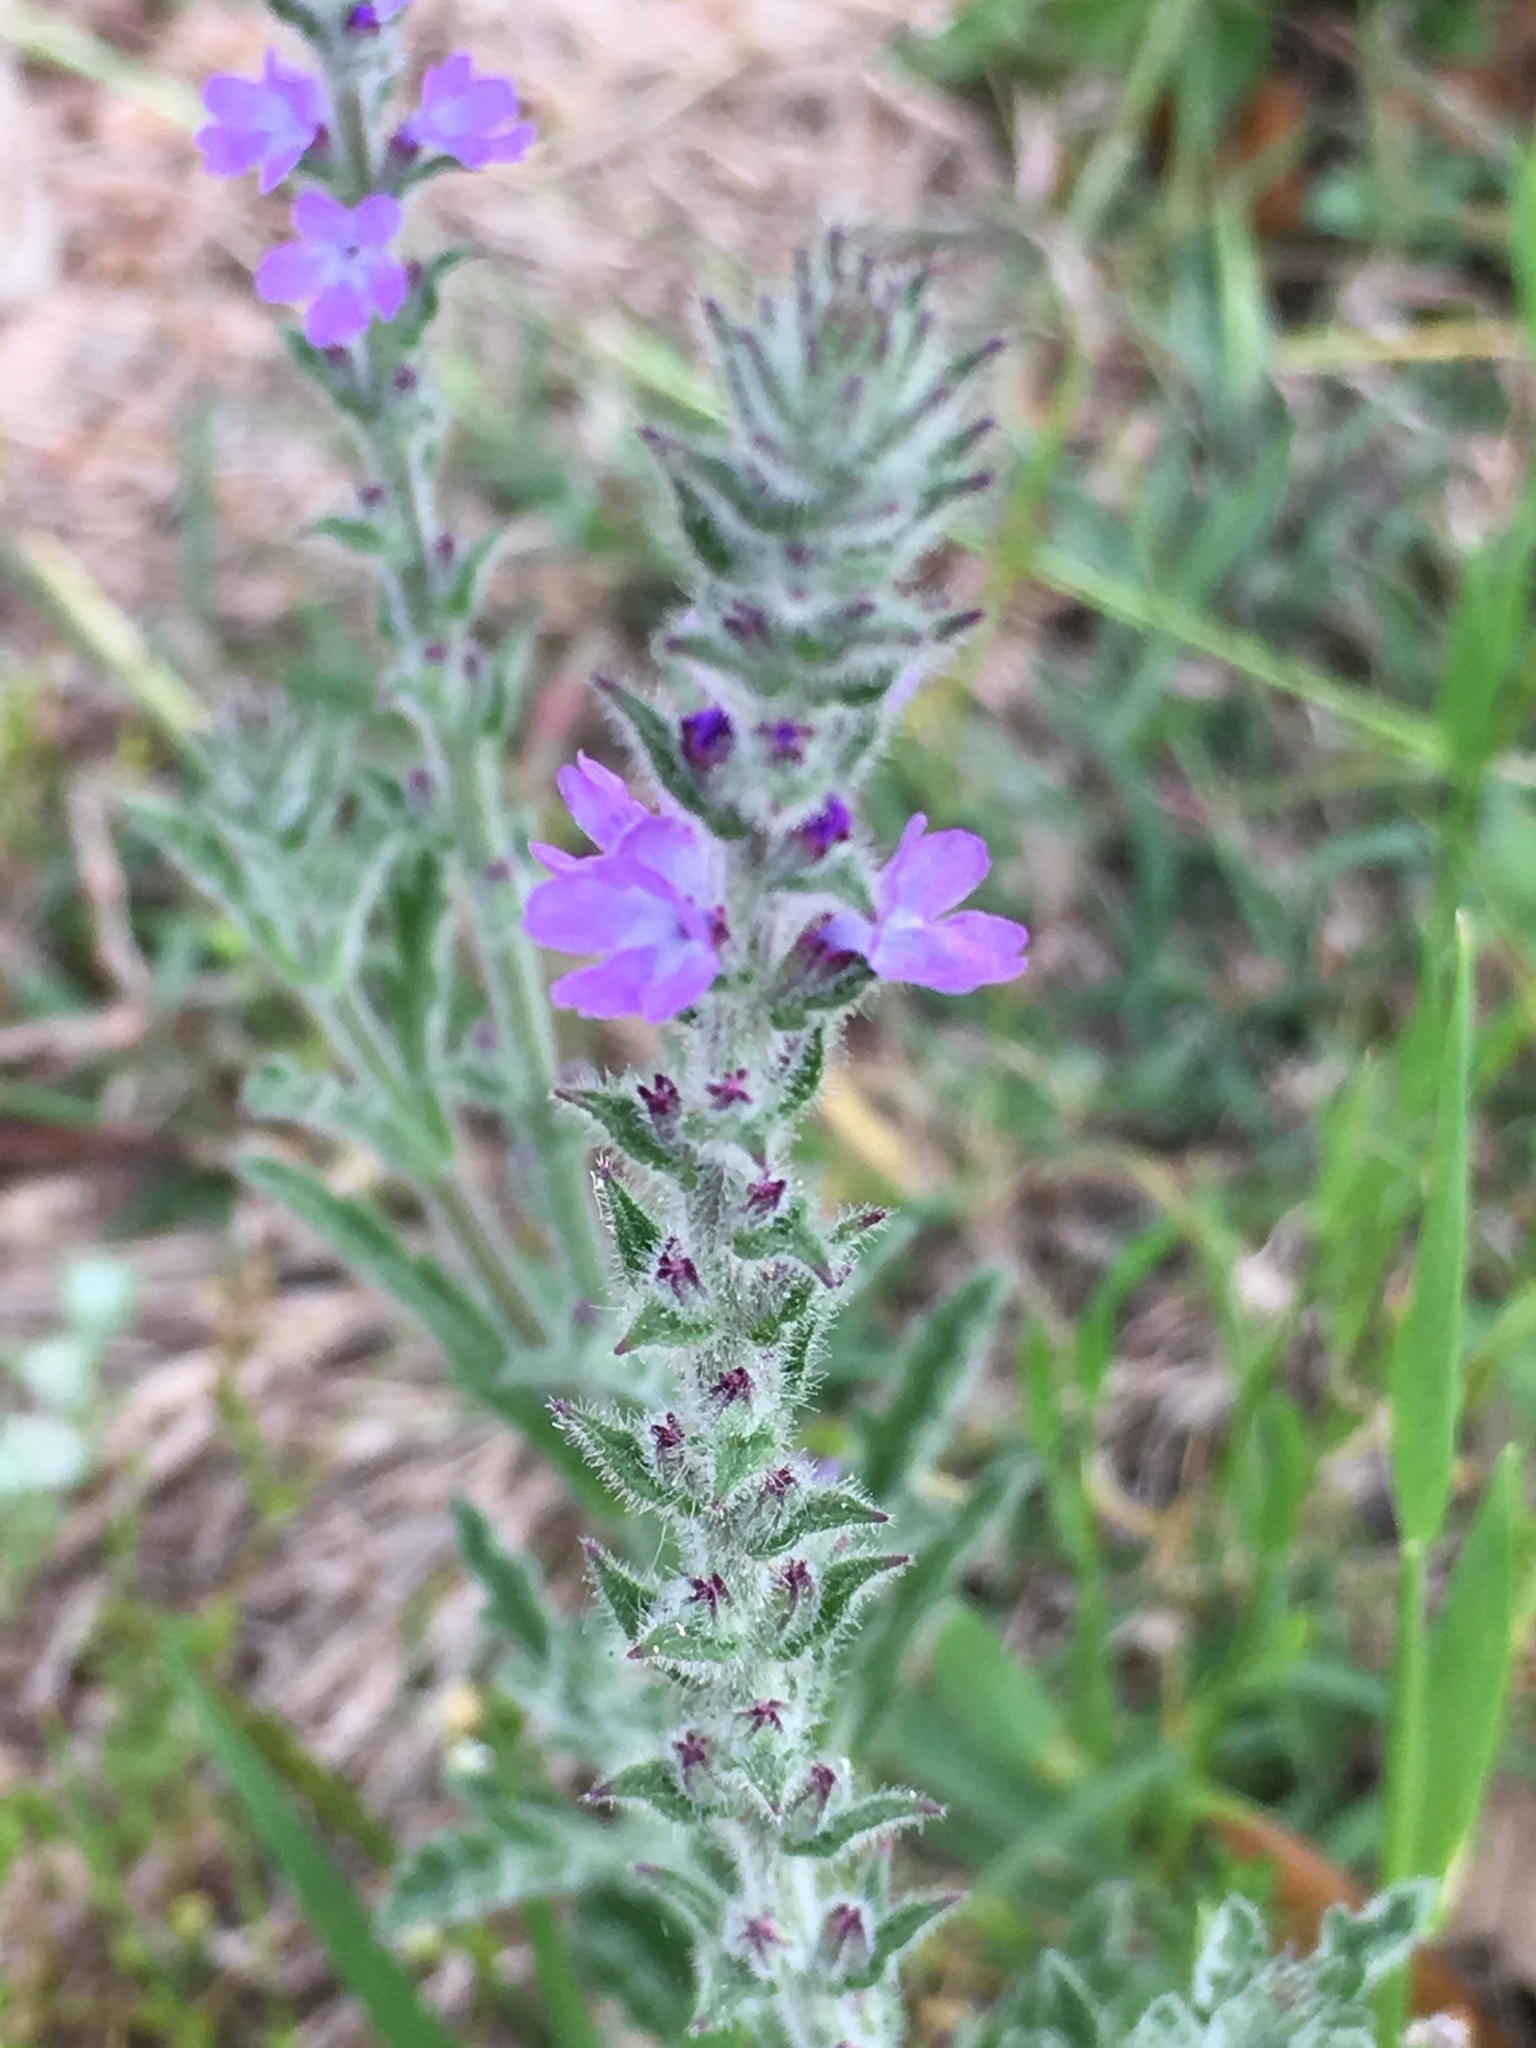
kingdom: Plantae
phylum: Tracheophyta
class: Magnoliopsida
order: Lamiales
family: Verbenaceae
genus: Verbena
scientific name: Verbena canescens
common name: Gray vervain
